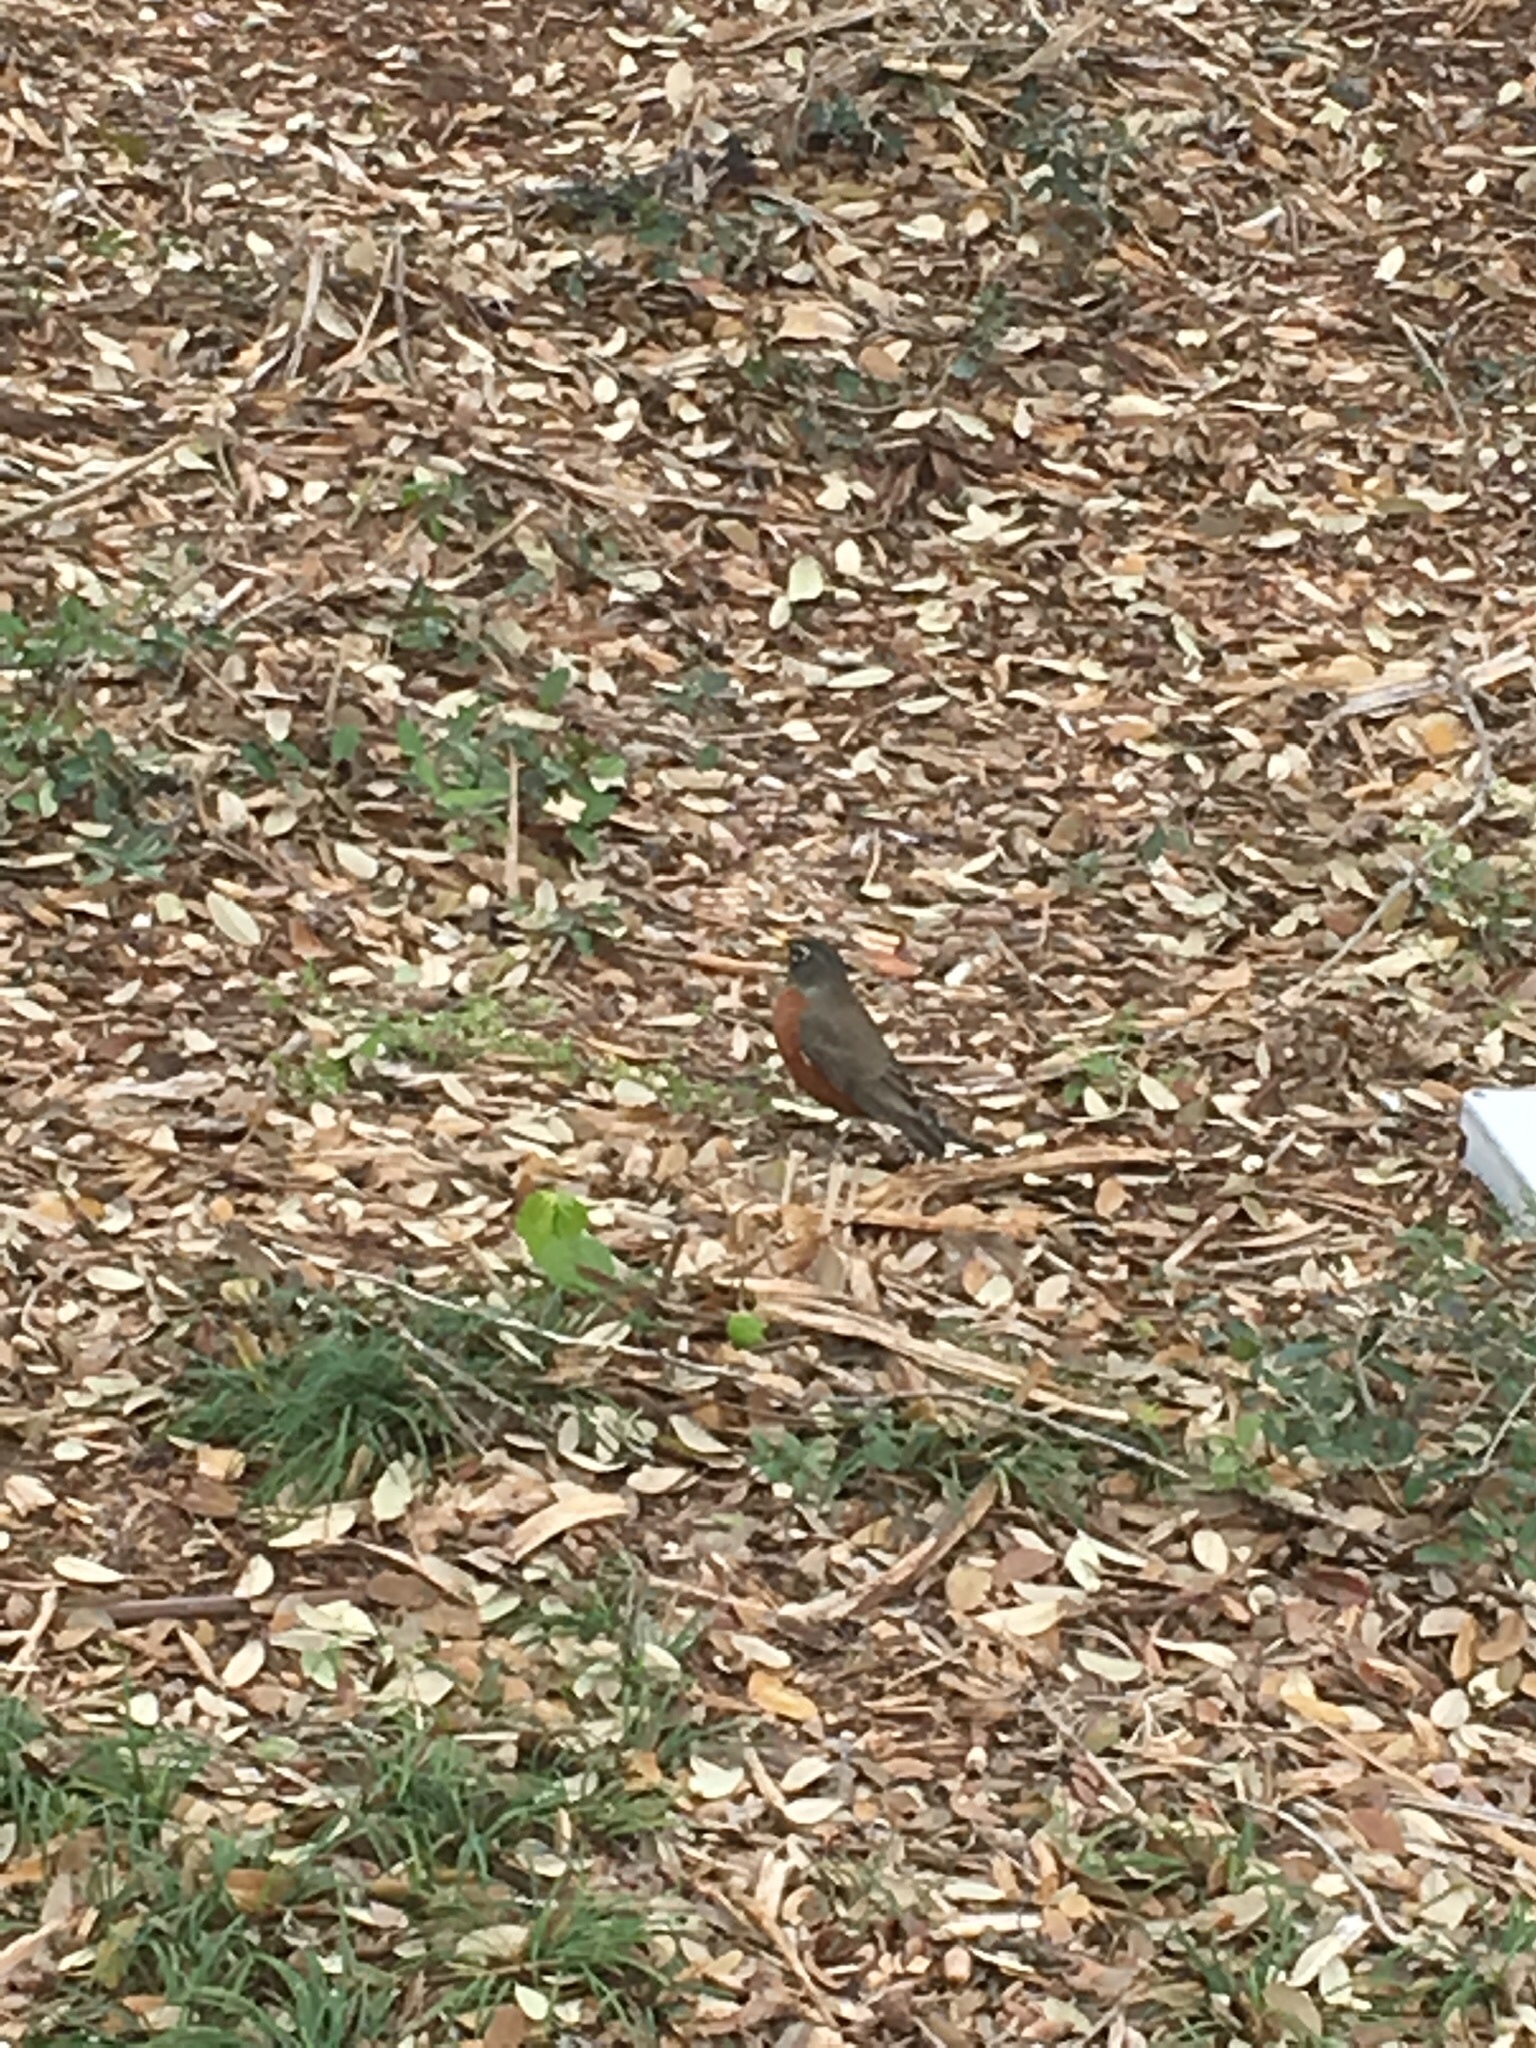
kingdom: Animalia
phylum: Chordata
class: Aves
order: Passeriformes
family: Turdidae
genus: Turdus
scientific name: Turdus migratorius
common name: American robin
